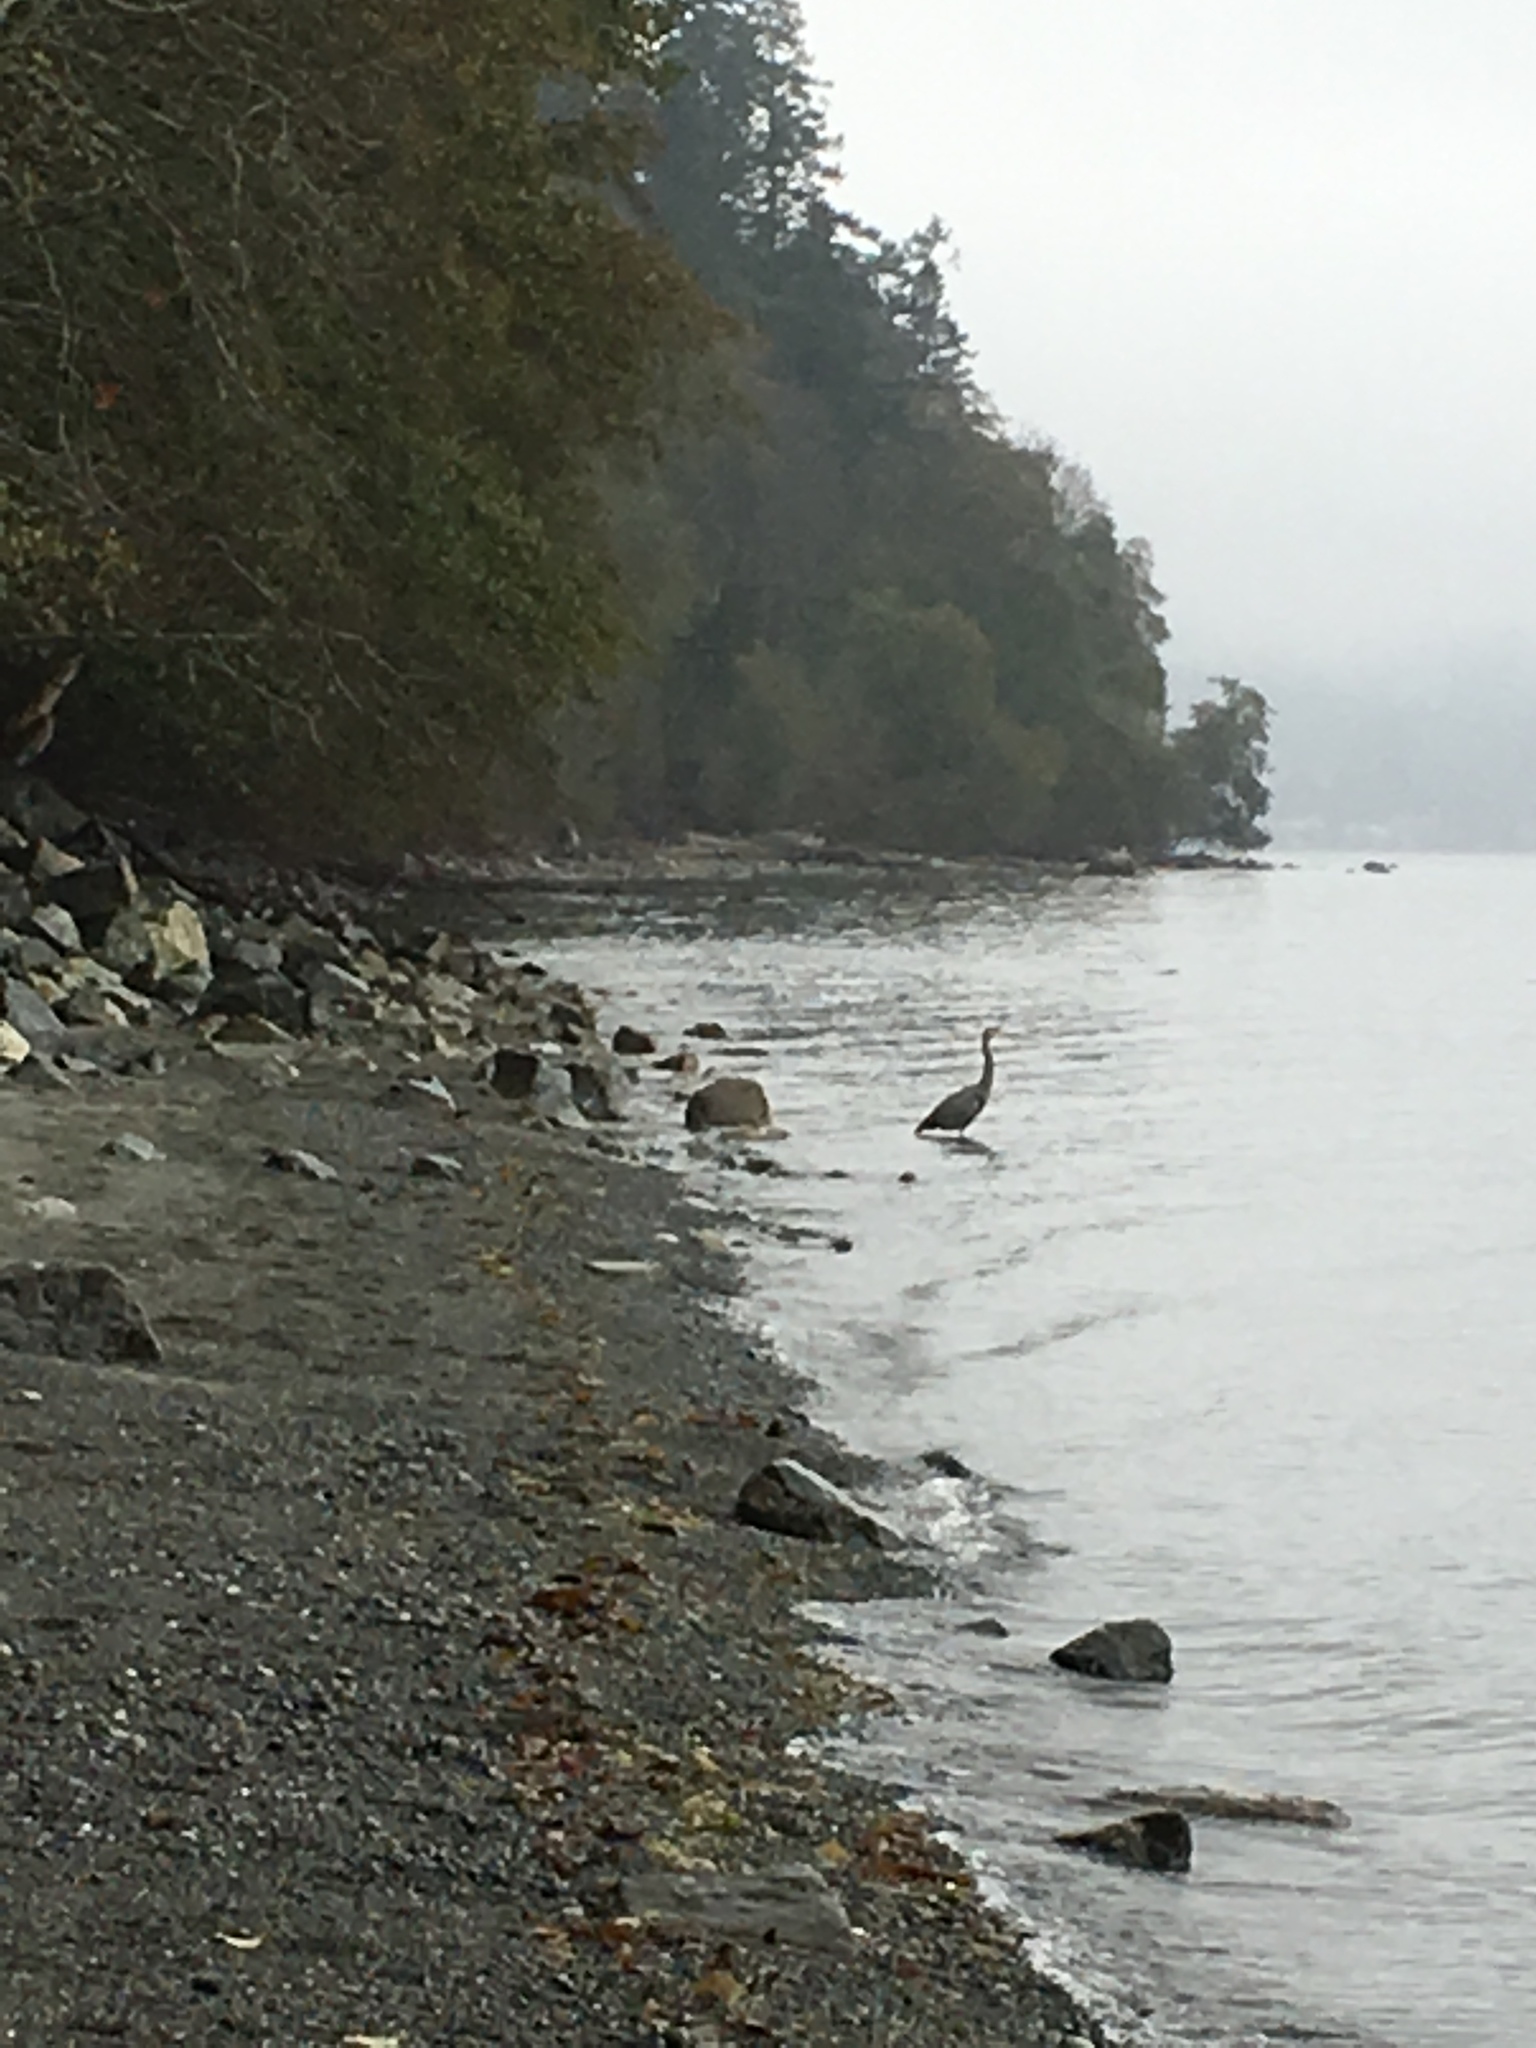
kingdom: Animalia
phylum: Chordata
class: Aves
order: Pelecaniformes
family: Ardeidae
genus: Ardea
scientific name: Ardea herodias
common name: Great blue heron
